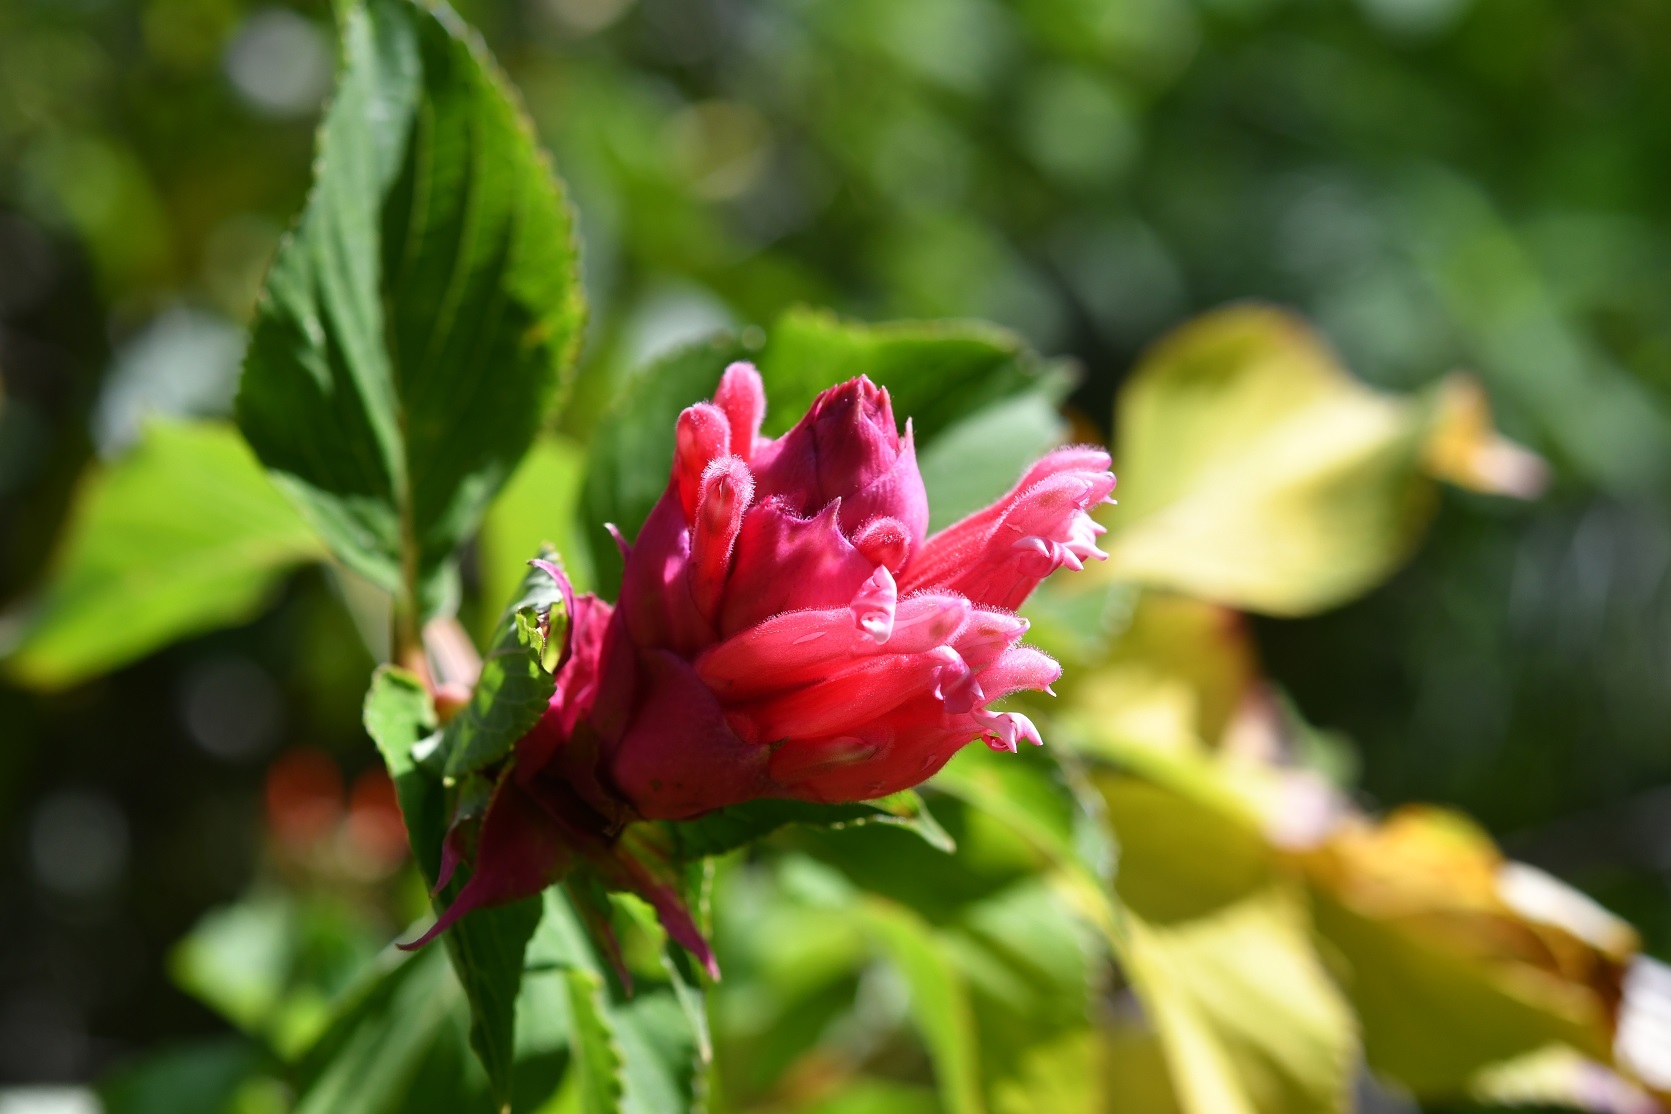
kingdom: Plantae
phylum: Tracheophyta
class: Magnoliopsida
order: Lamiales
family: Lamiaceae
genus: Salvia
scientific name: Salvia wagneriana
